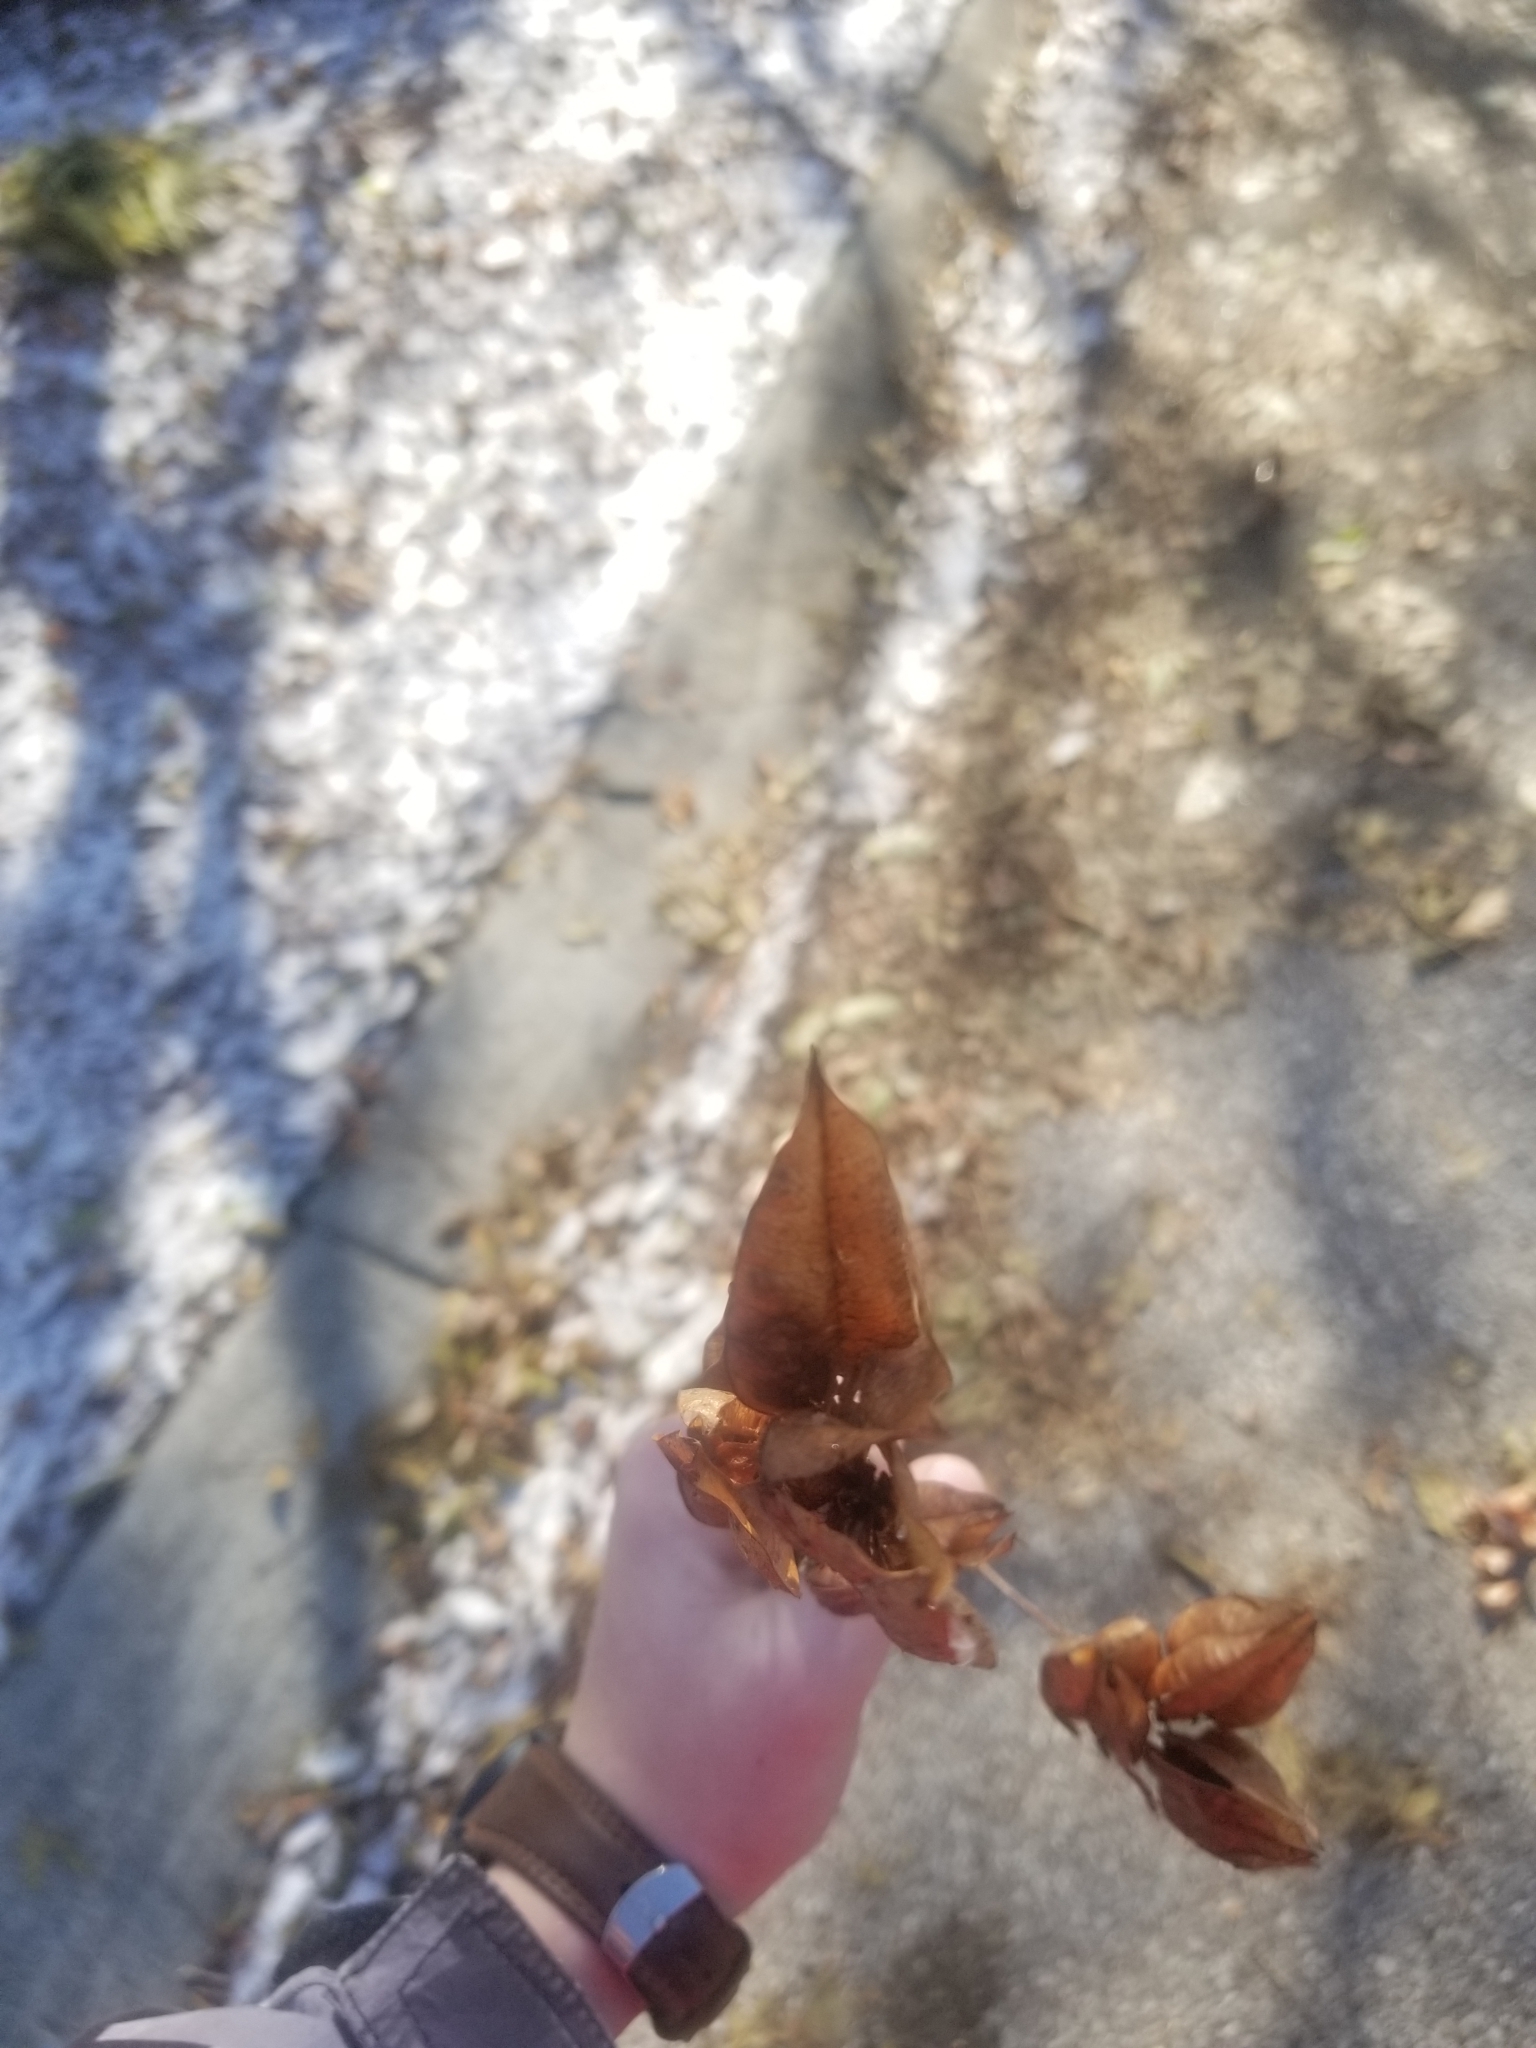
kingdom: Plantae
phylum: Tracheophyta
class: Magnoliopsida
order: Sapindales
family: Sapindaceae
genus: Koelreuteria
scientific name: Koelreuteria paniculata
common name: Pride-of-india
